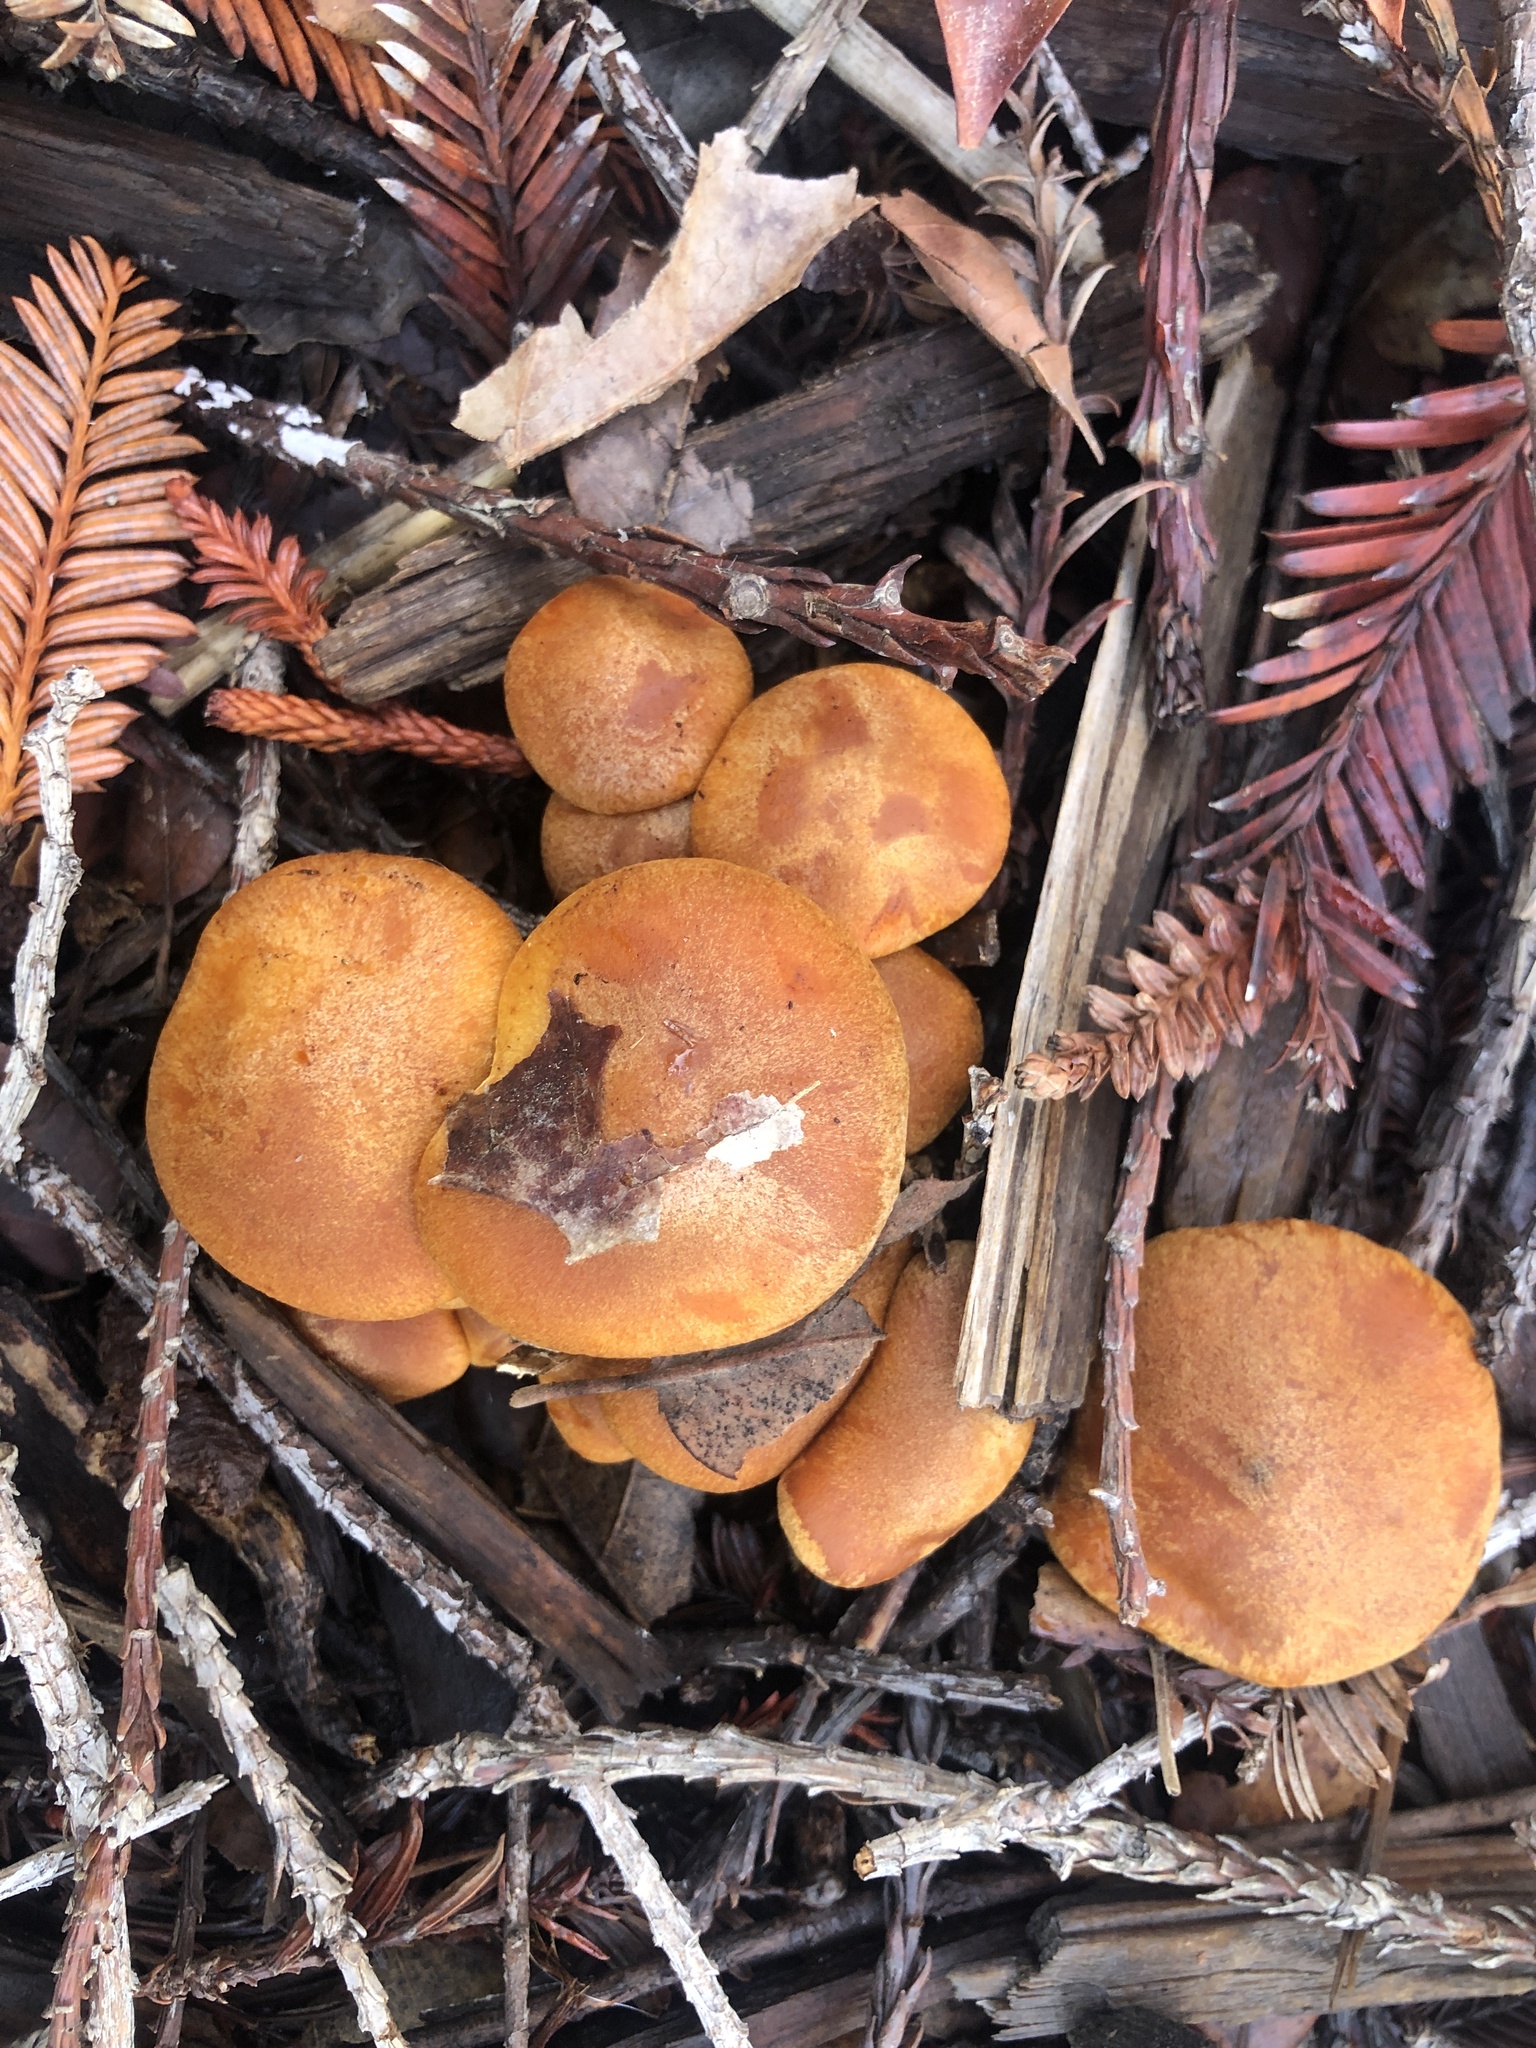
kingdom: Fungi
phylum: Basidiomycota
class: Agaricomycetes
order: Agaricales
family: Hymenogastraceae
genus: Gymnopilus
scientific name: Gymnopilus aurantiophyllus
